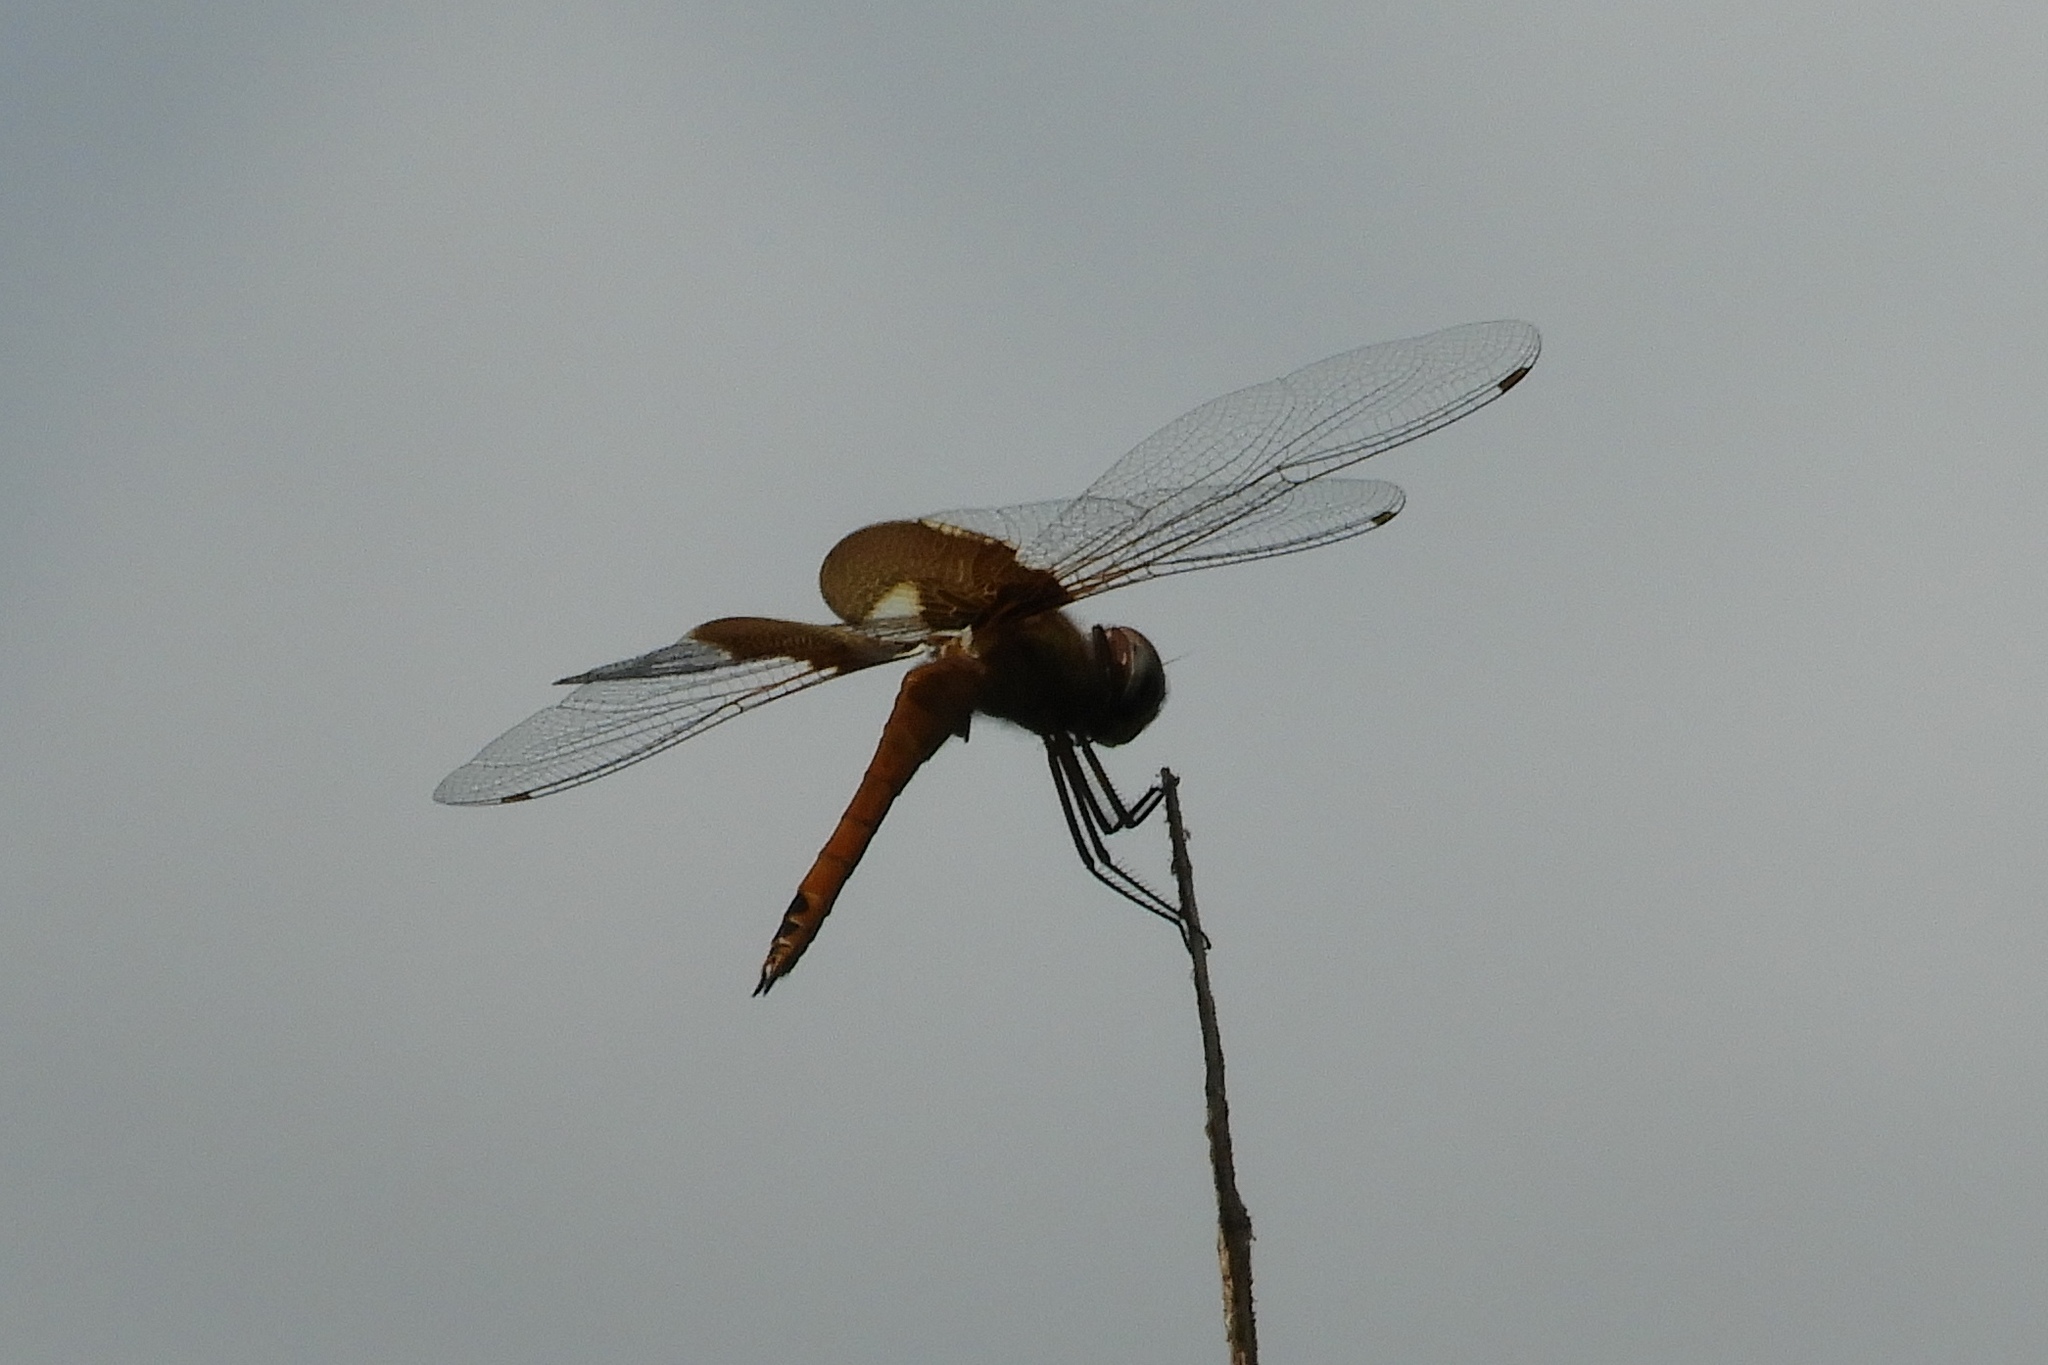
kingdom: Animalia
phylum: Arthropoda
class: Insecta
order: Odonata
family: Libellulidae
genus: Tramea
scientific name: Tramea onusta
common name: Red saddlebags
